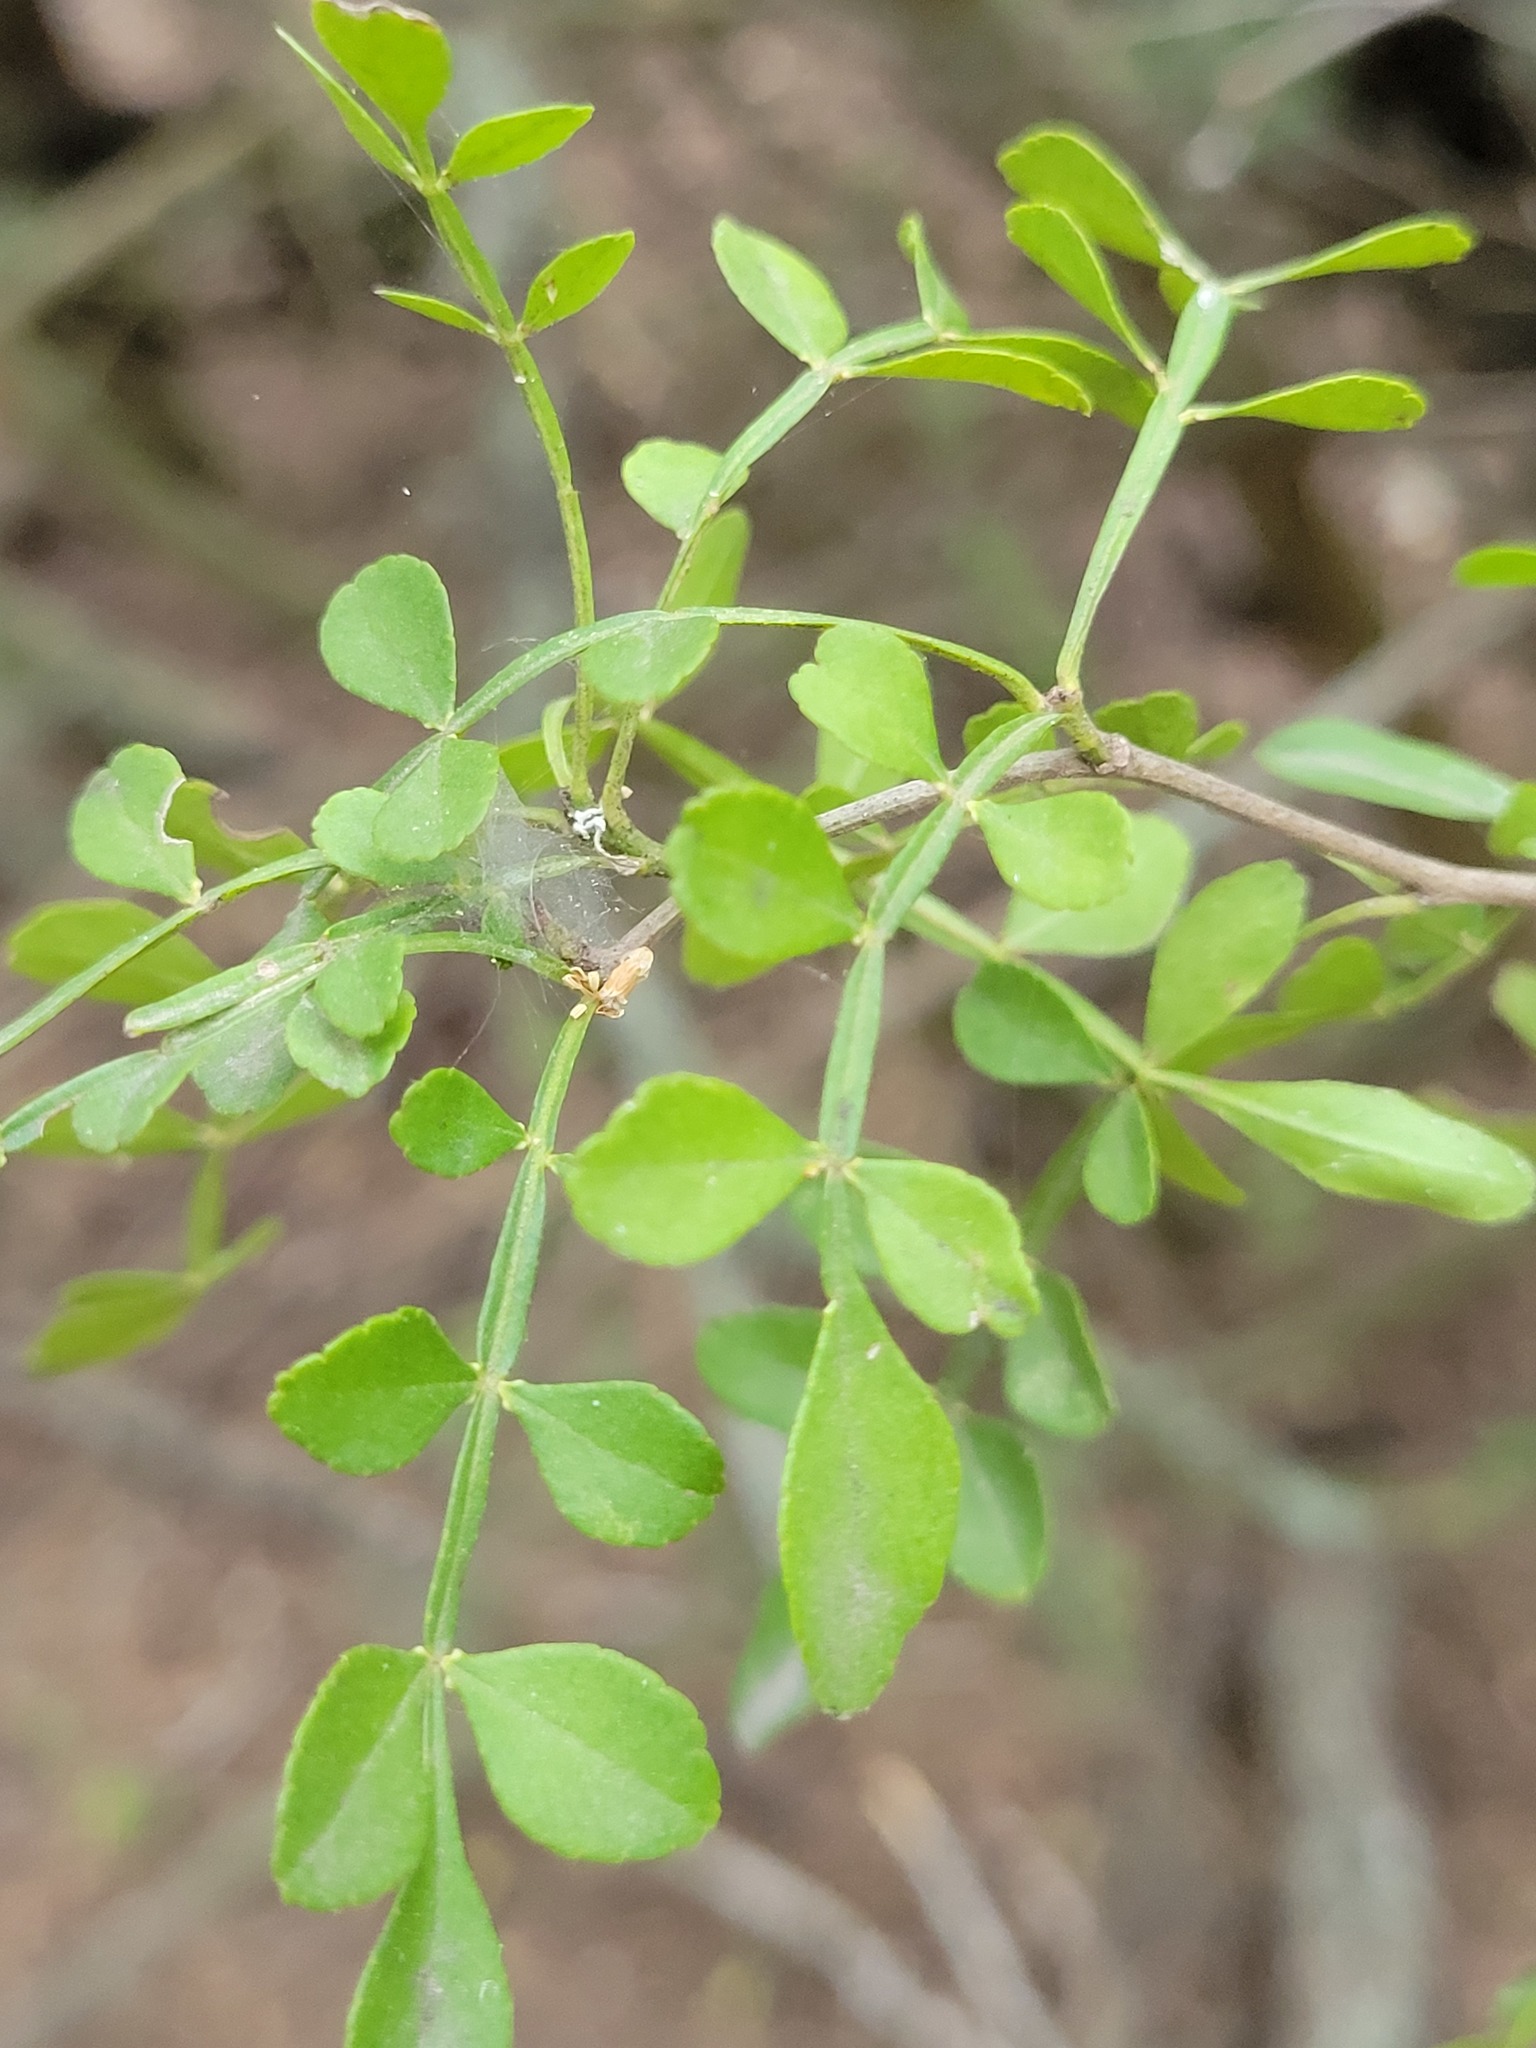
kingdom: Plantae
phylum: Tracheophyta
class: Magnoliopsida
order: Sapindales
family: Rutaceae
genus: Zanthoxylum
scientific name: Zanthoxylum fagara
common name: Lime prickly-ash
